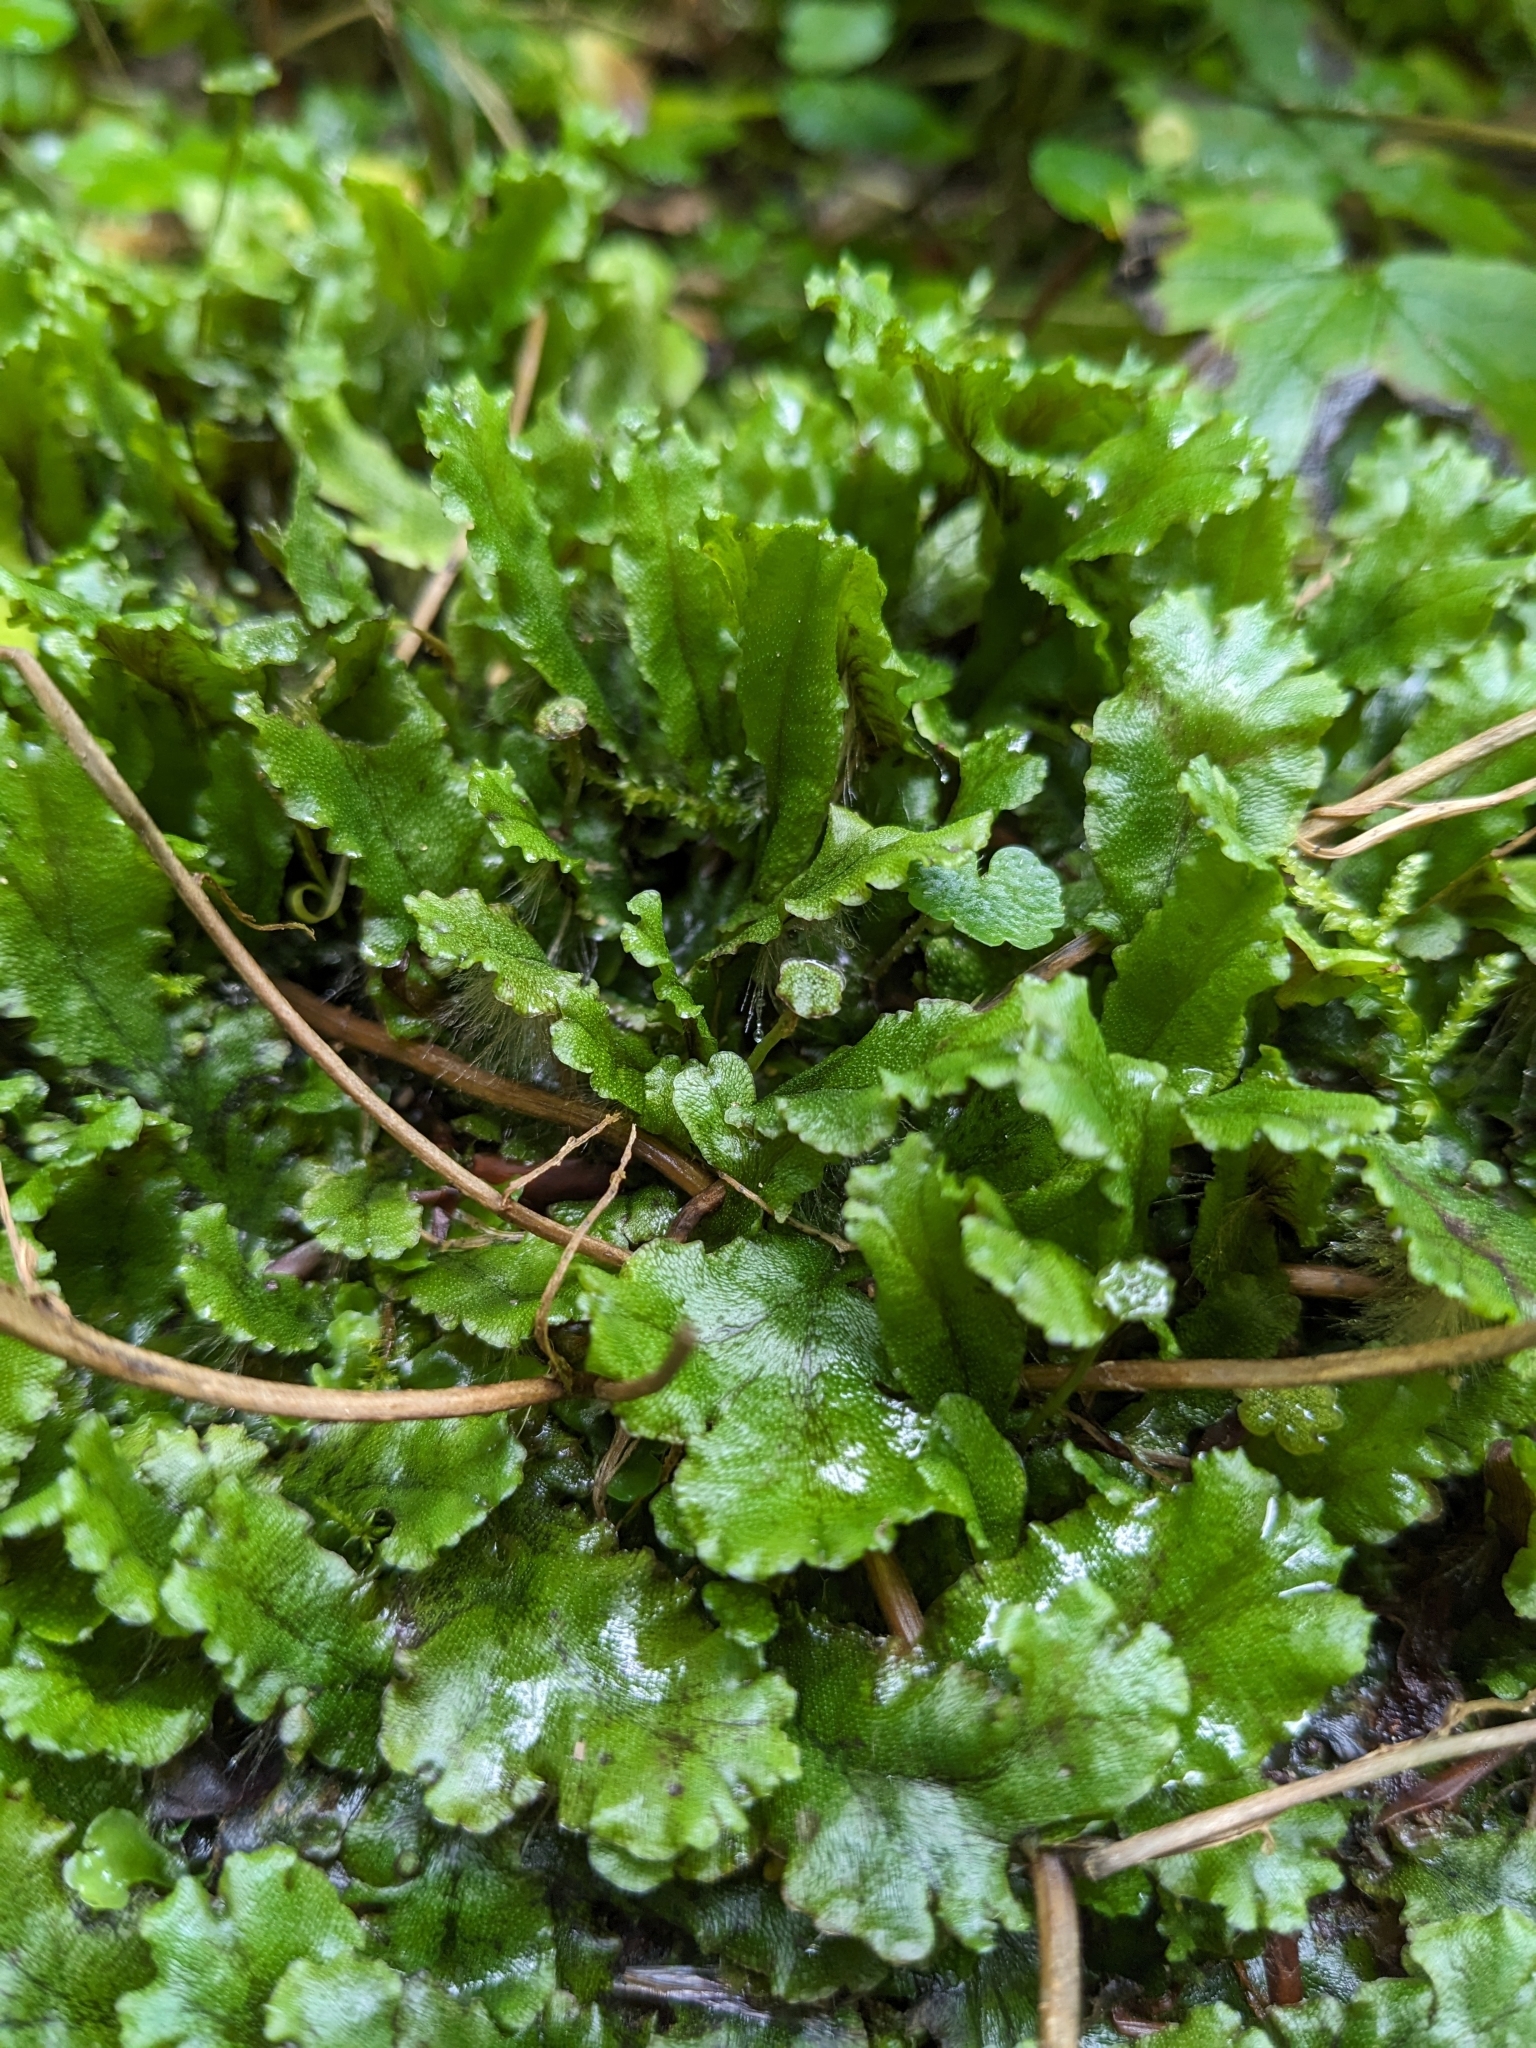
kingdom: Plantae
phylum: Marchantiophyta
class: Marchantiopsida
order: Marchantiales
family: Marchantiaceae
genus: Marchantia
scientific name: Marchantia polymorpha
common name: Common liverwort
